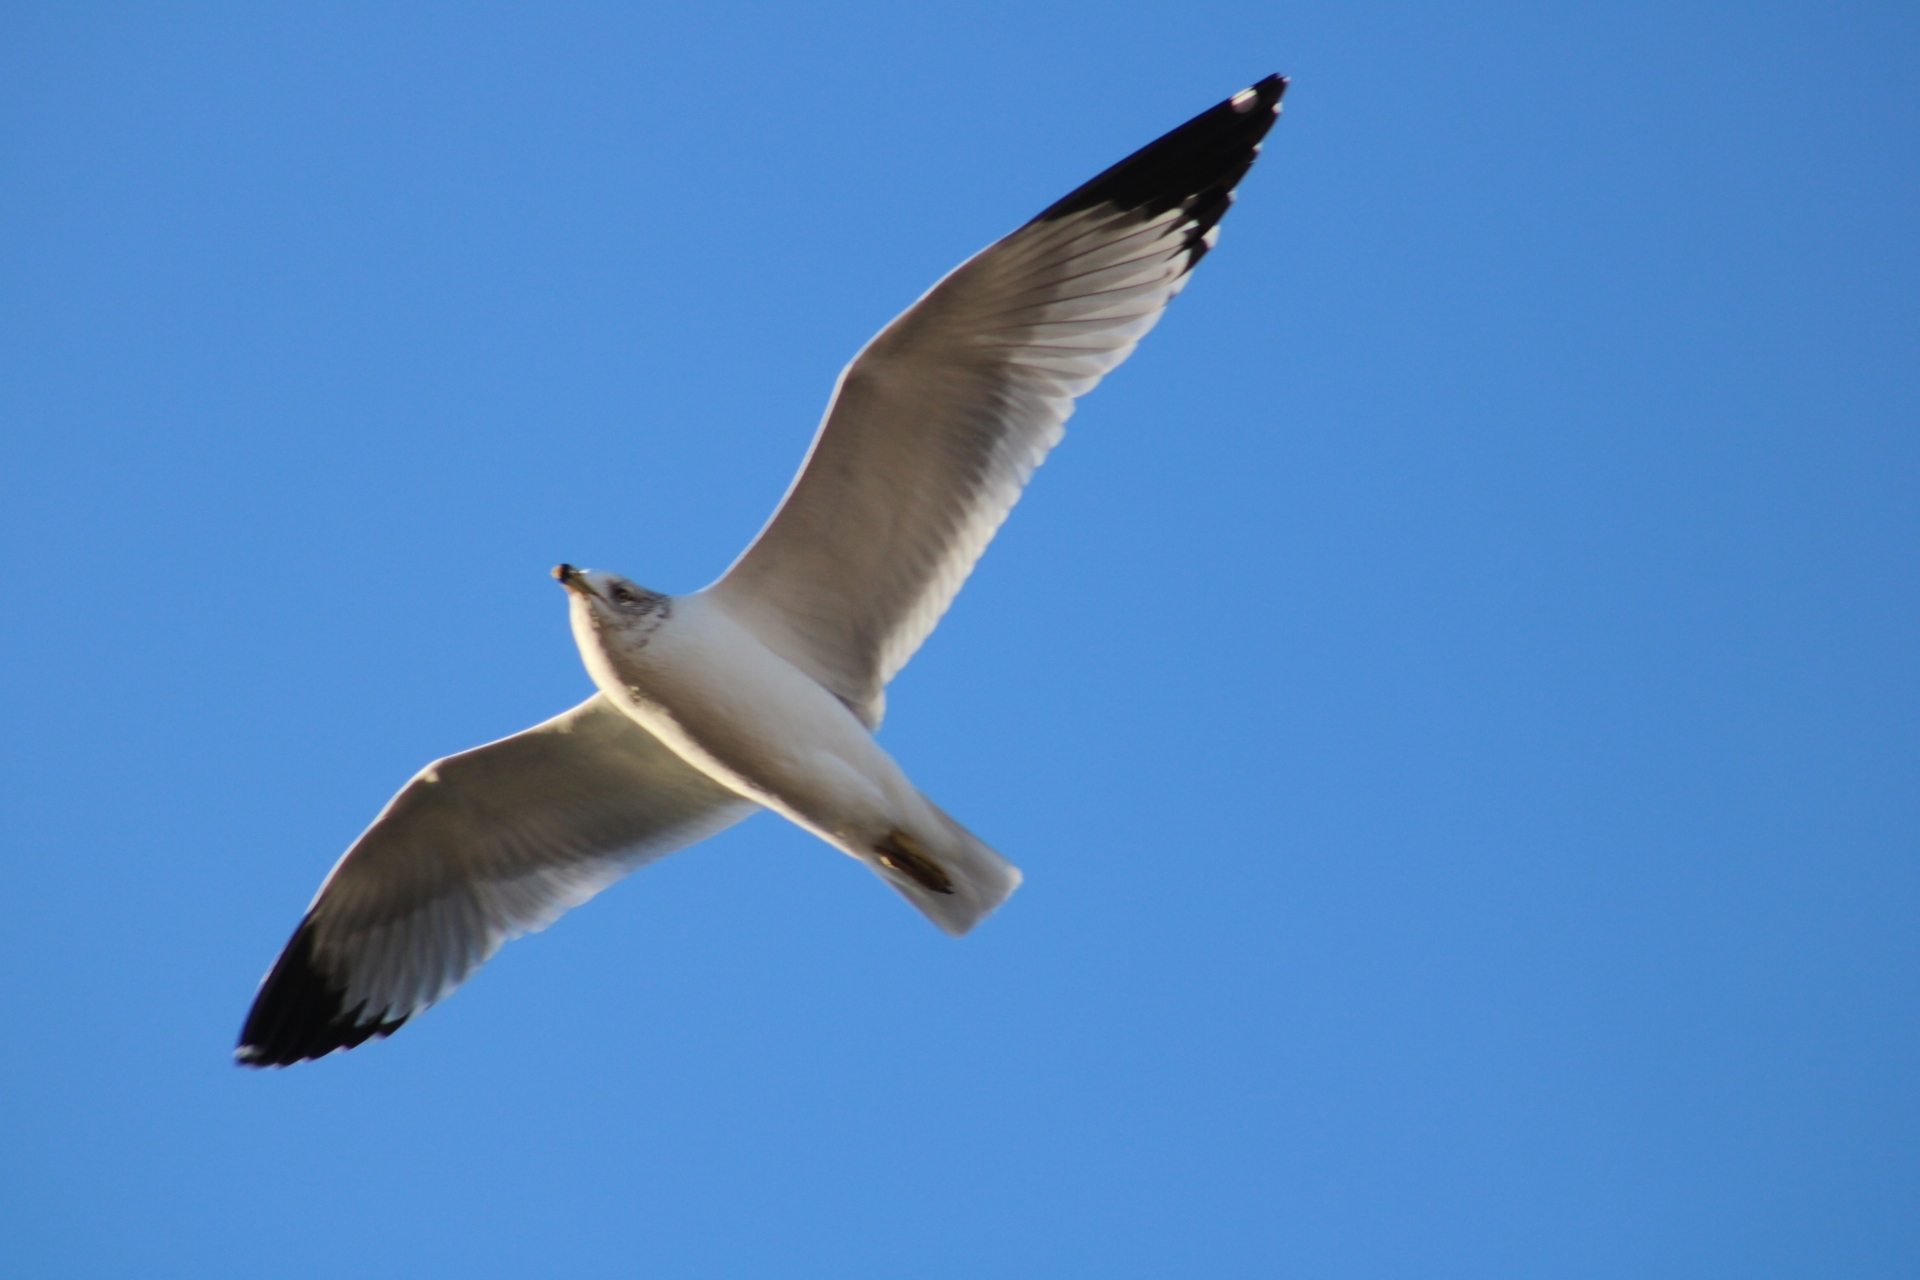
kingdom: Animalia
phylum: Chordata
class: Aves
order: Charadriiformes
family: Laridae
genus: Larus
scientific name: Larus delawarensis
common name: Ring-billed gull
